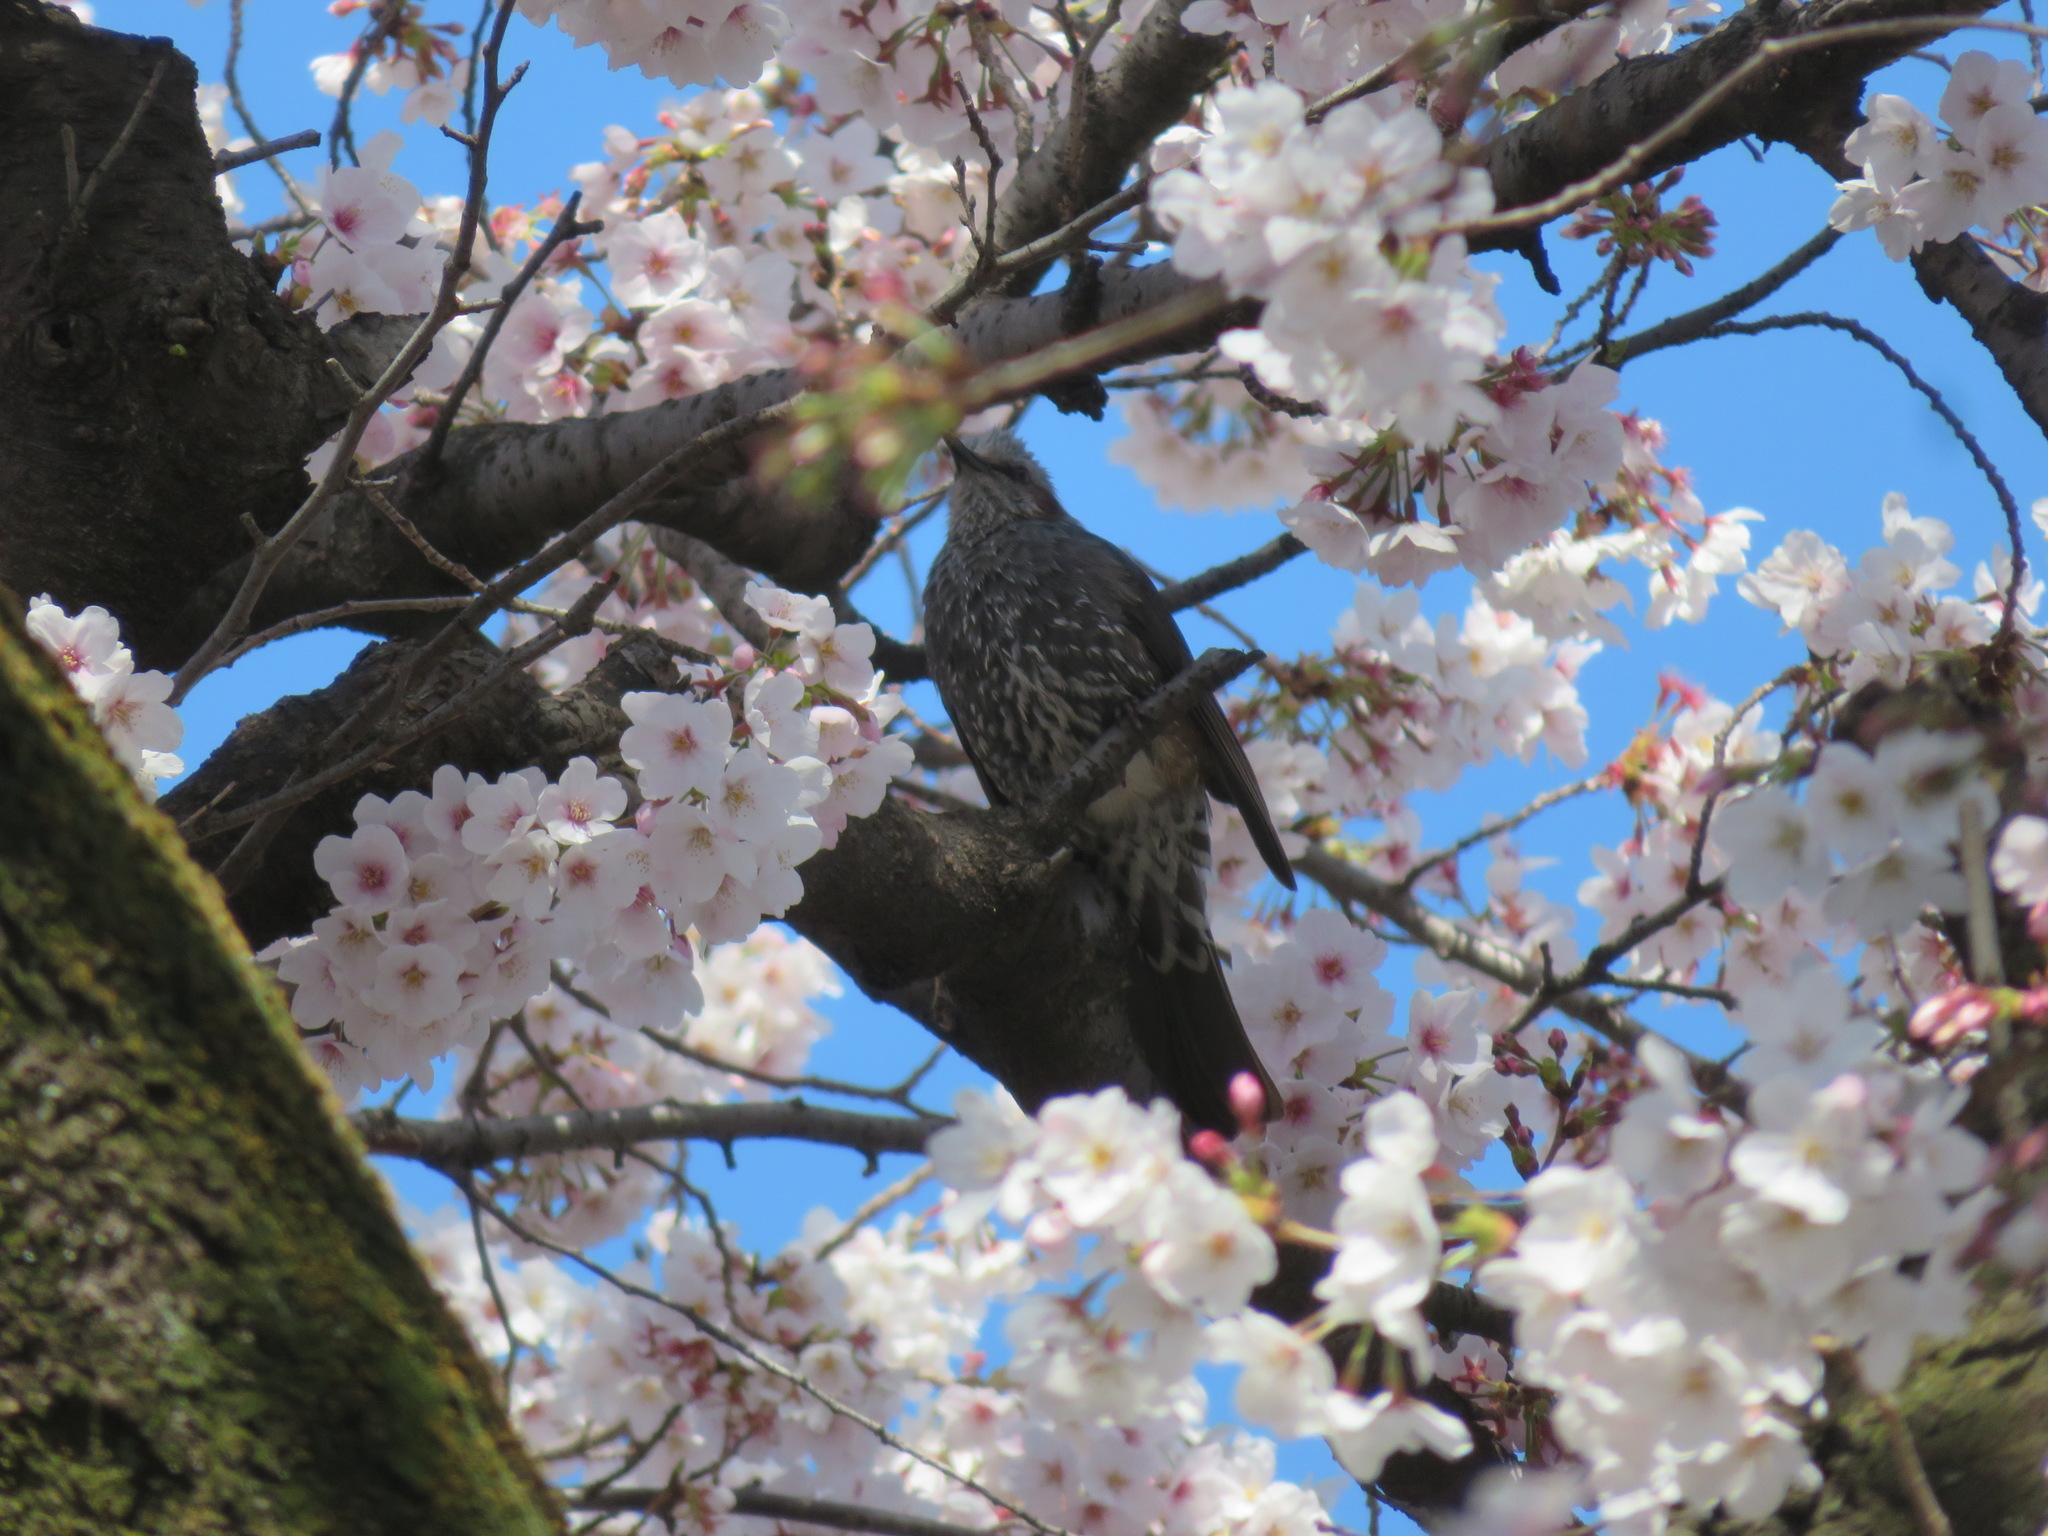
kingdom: Animalia
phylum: Chordata
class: Aves
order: Passeriformes
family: Pycnonotidae
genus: Hypsipetes
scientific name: Hypsipetes amaurotis
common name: Brown-eared bulbul
